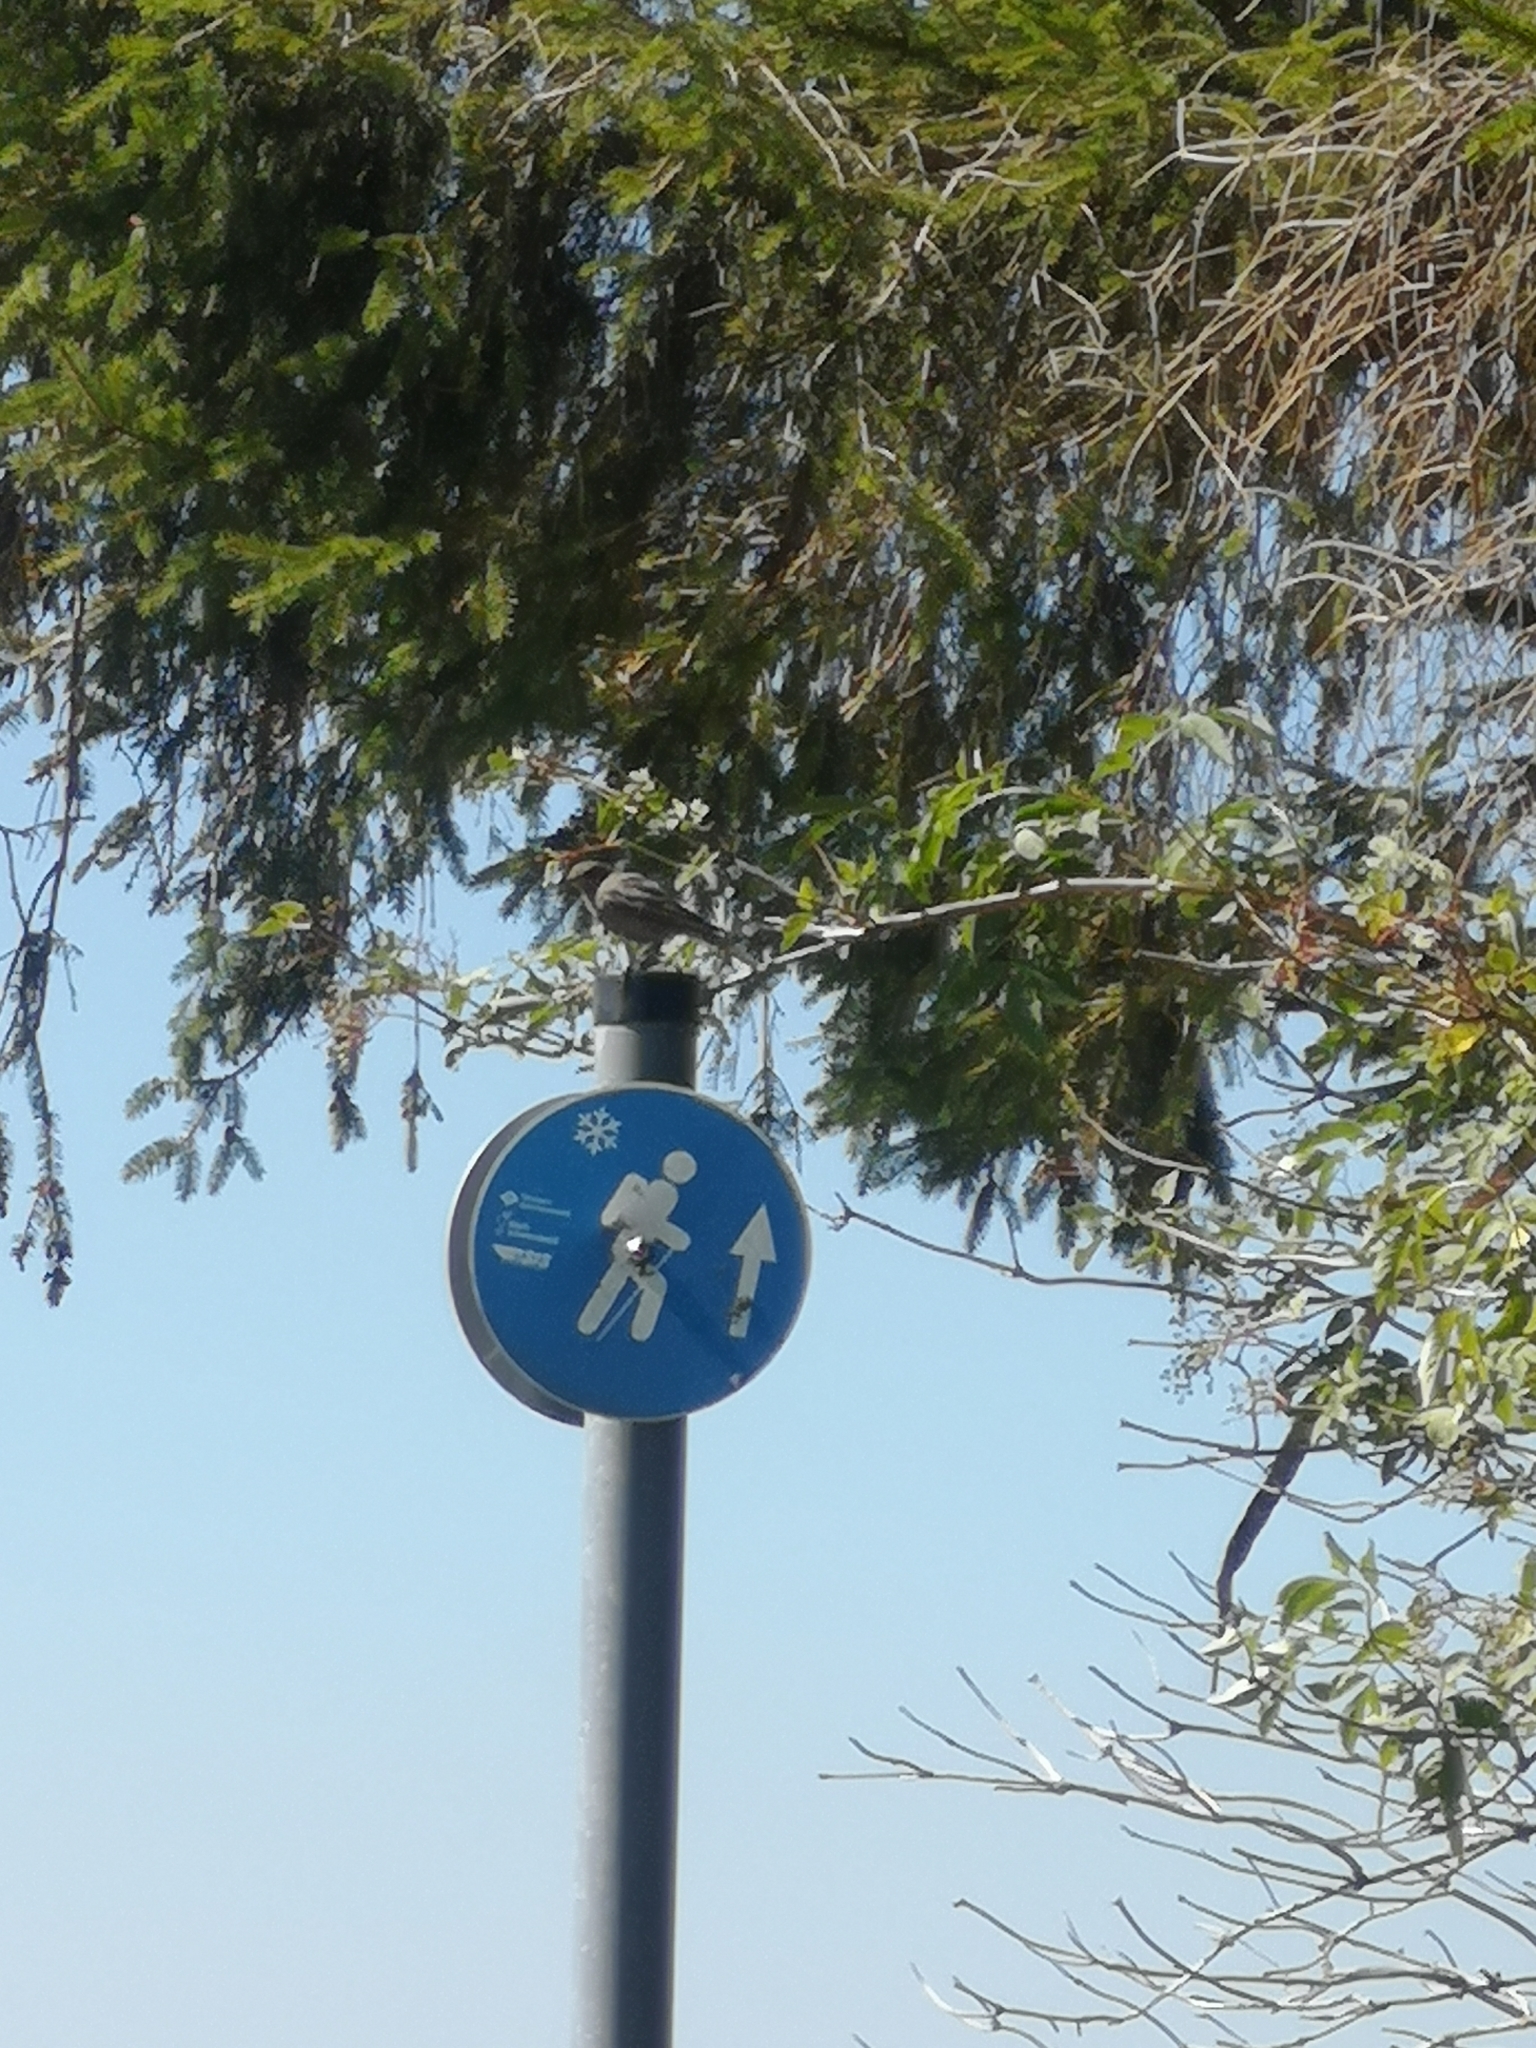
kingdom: Animalia
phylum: Chordata
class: Aves
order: Passeriformes
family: Muscicapidae
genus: Phoenicurus
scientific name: Phoenicurus ochruros
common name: Black redstart
